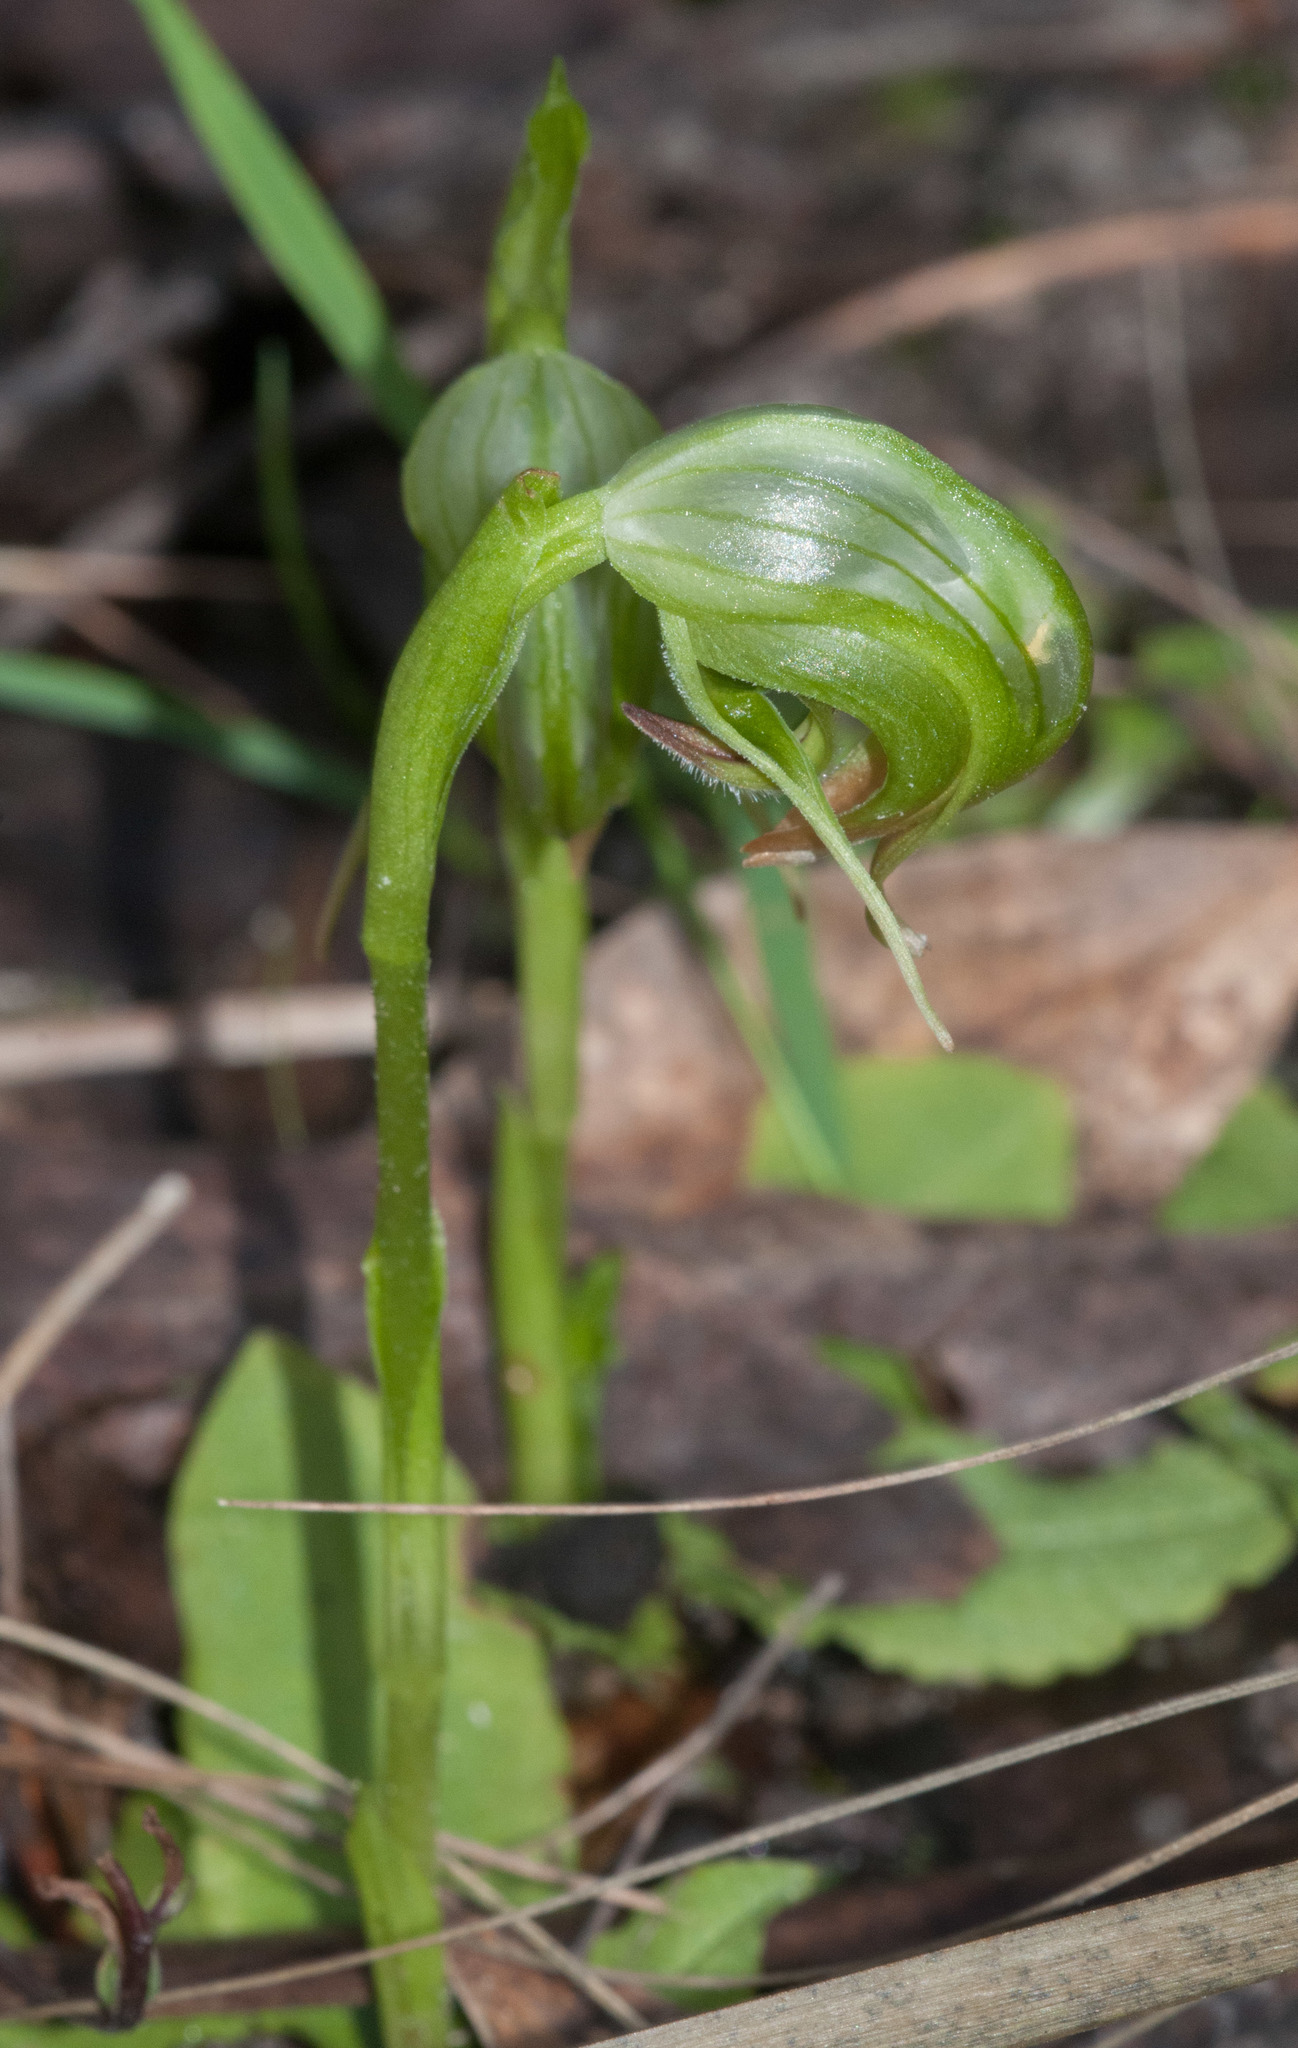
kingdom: Plantae
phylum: Tracheophyta
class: Liliopsida
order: Asparagales
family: Orchidaceae
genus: Pterostylis
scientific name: Pterostylis nutans
